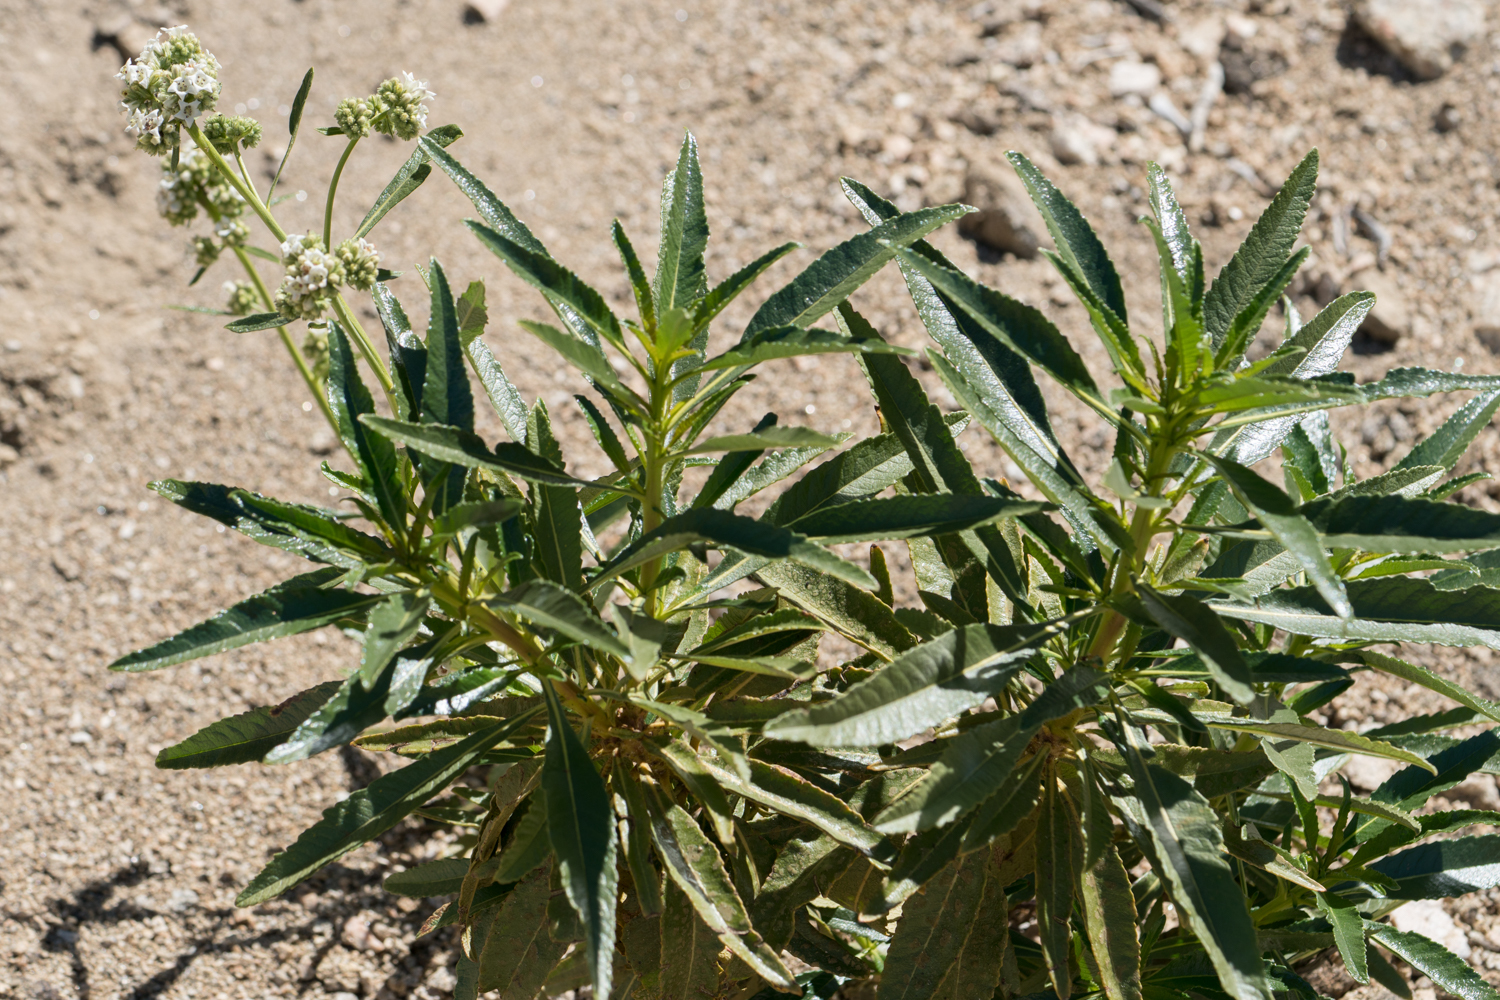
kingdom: Plantae
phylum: Tracheophyta
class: Magnoliopsida
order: Boraginales
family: Namaceae
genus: Eriodictyon
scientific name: Eriodictyon trichocalyx
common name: Hairy yerba-santa
